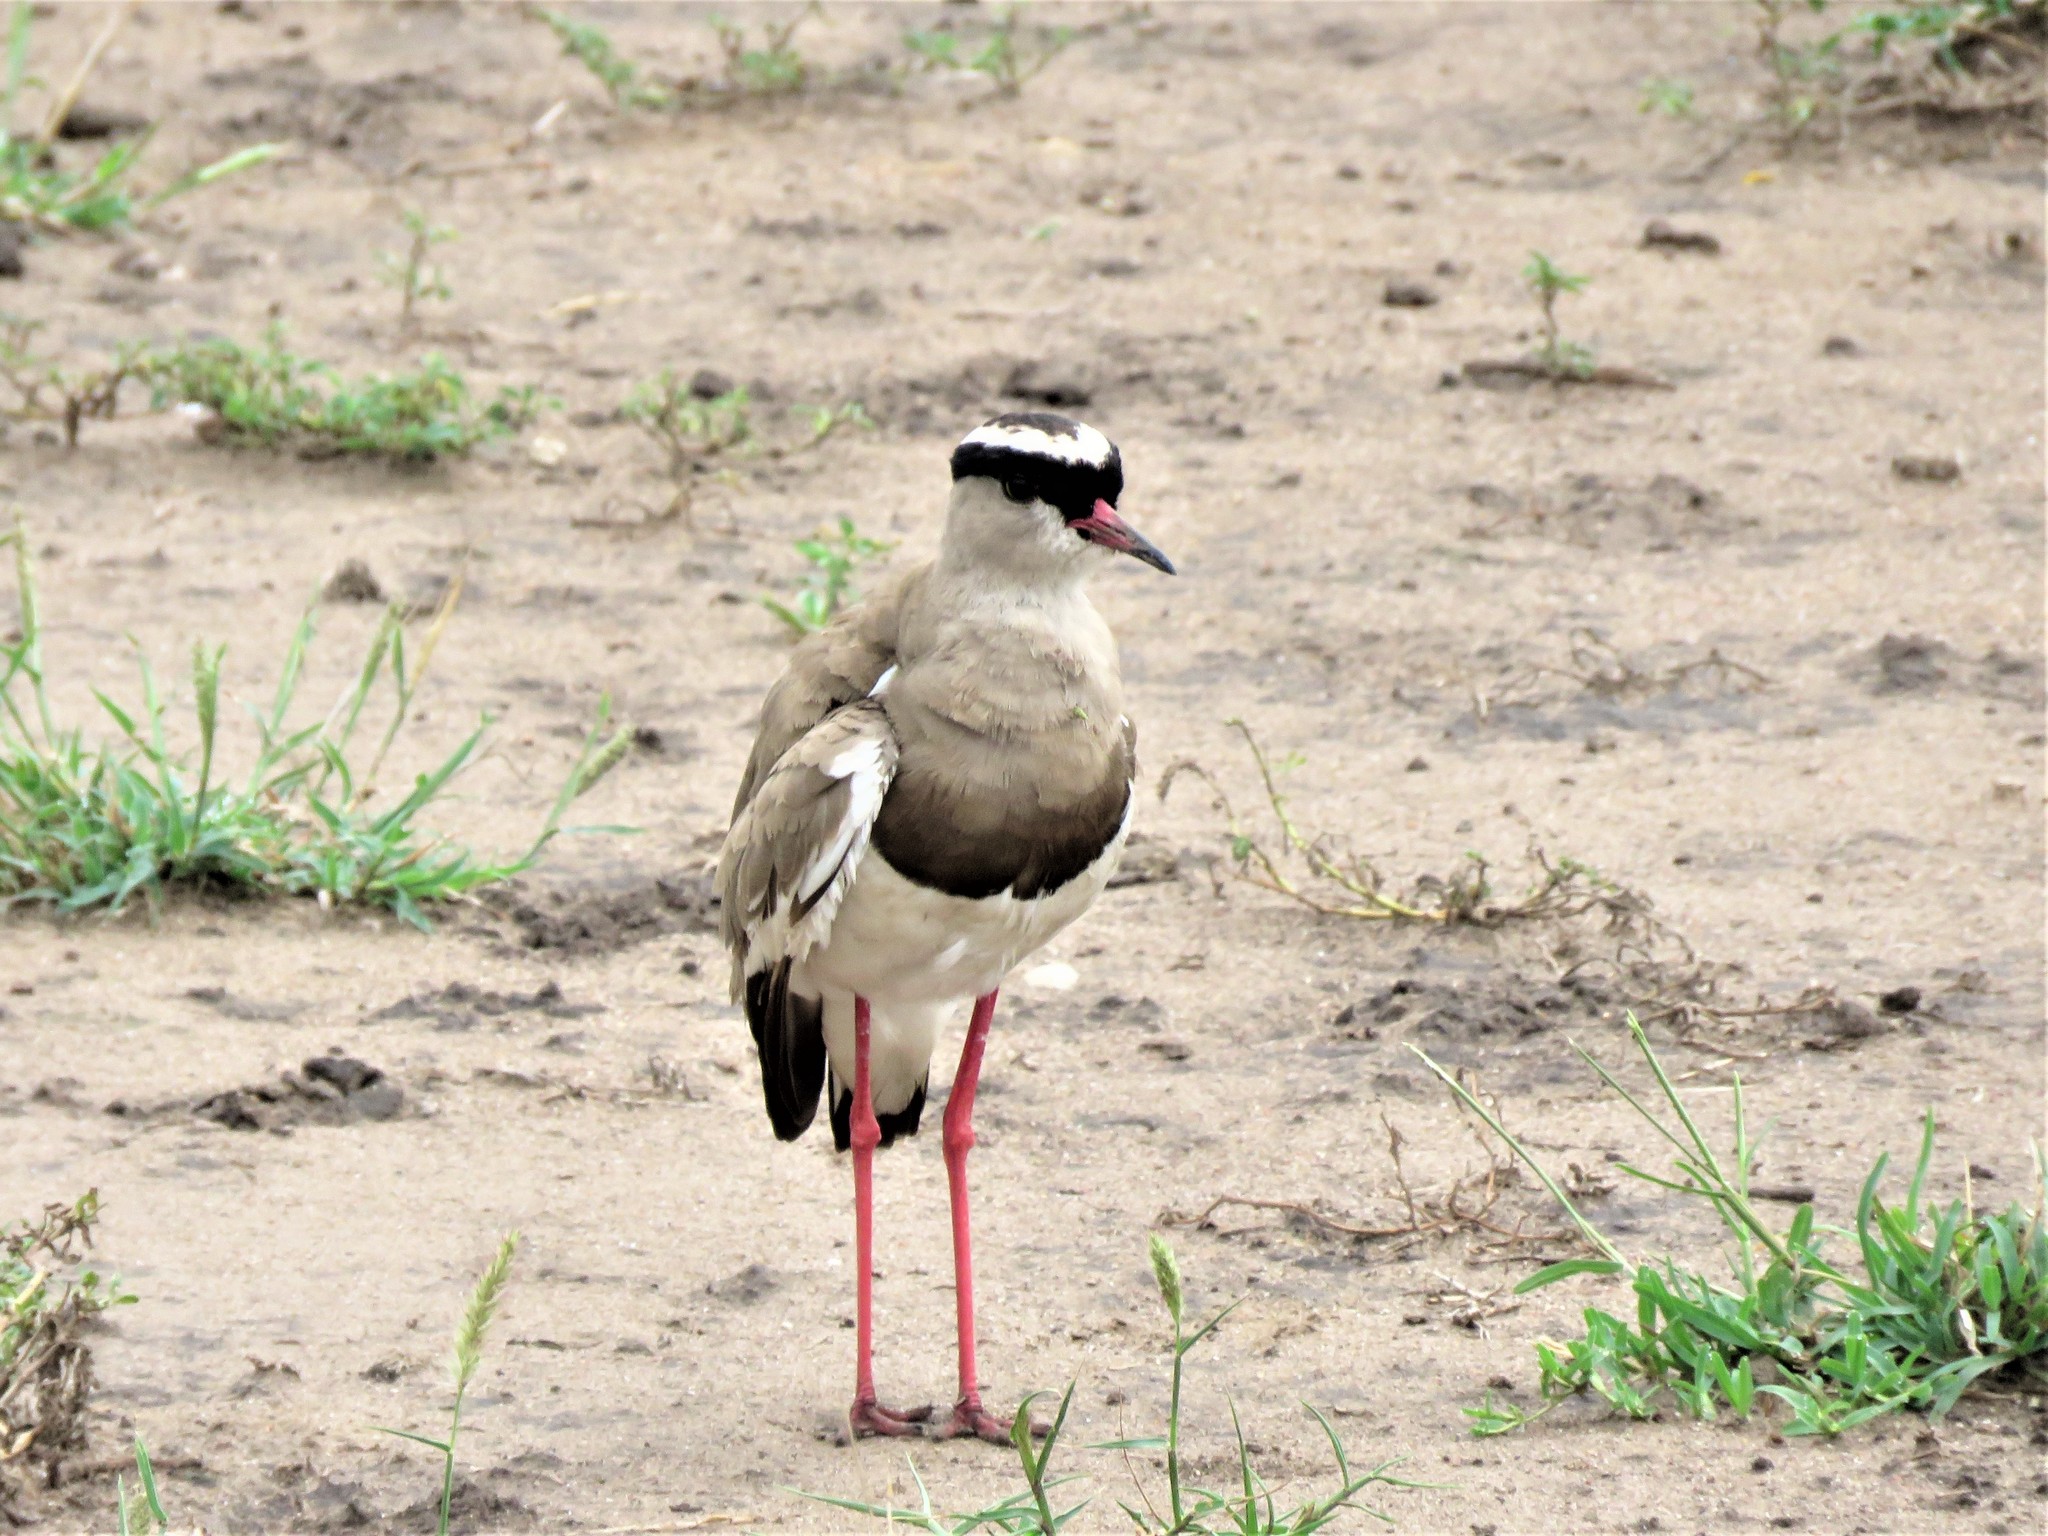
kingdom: Animalia
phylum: Chordata
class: Aves
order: Charadriiformes
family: Charadriidae
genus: Vanellus
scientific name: Vanellus coronatus
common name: Crowned lapwing
